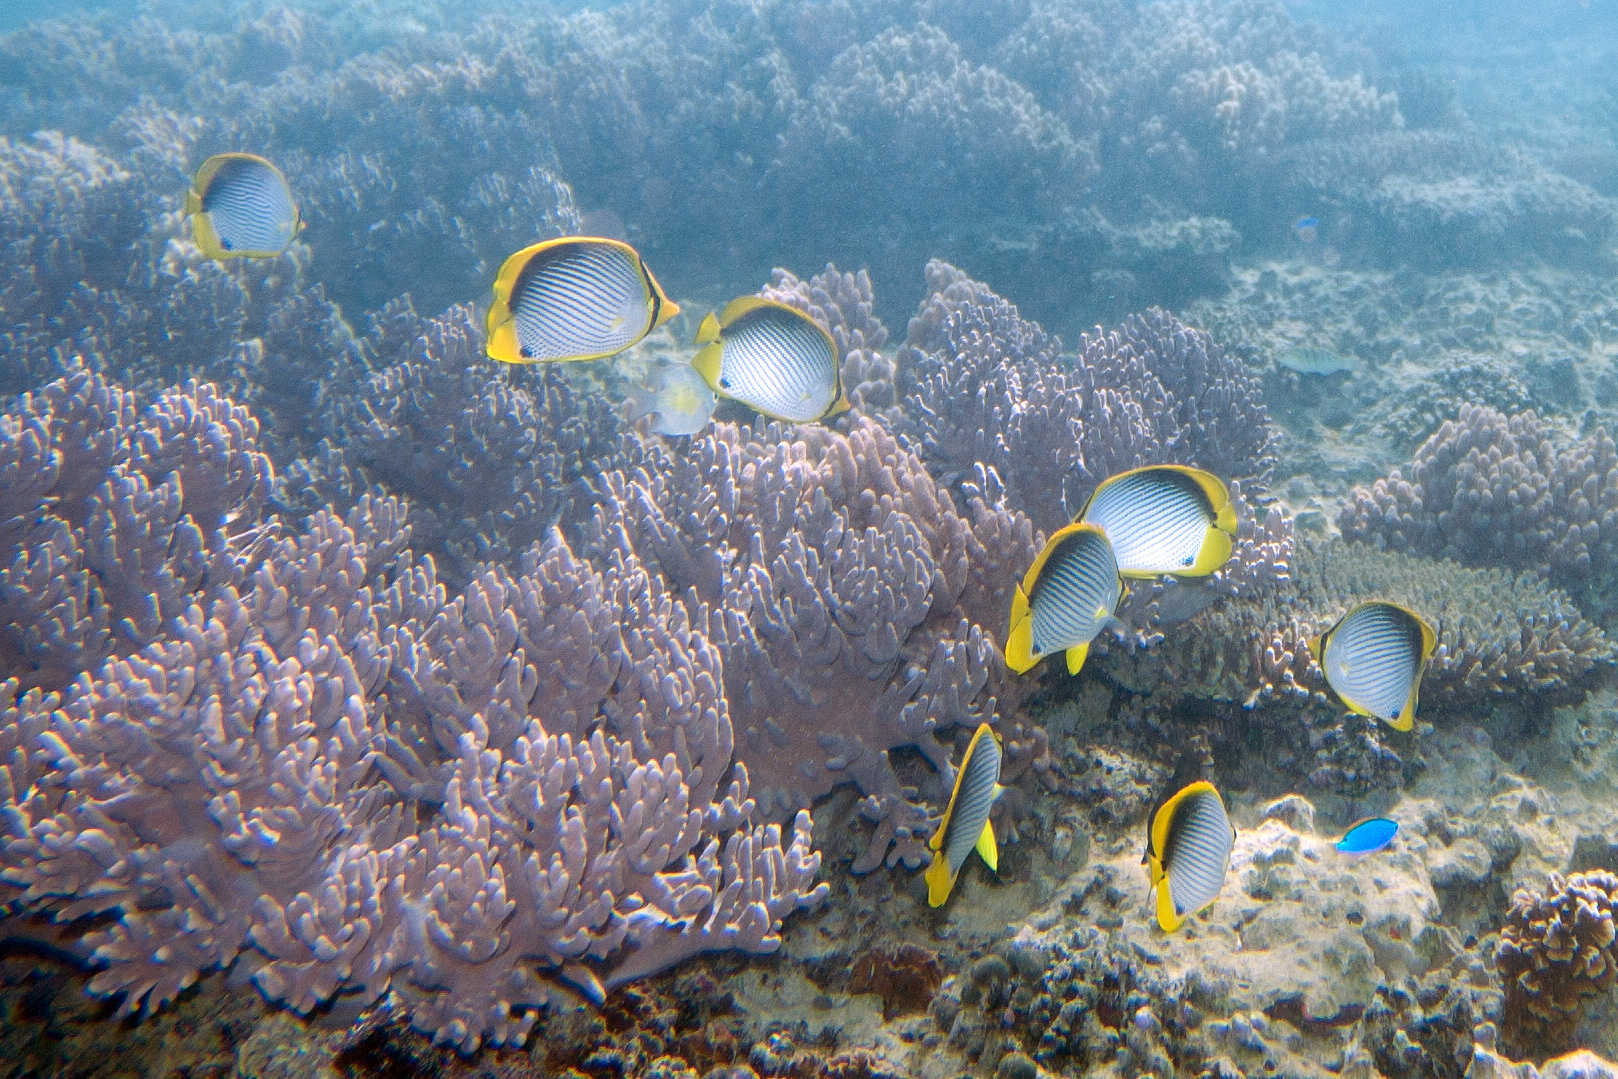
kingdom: Animalia
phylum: Chordata
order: Perciformes
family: Chaetodontidae
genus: Chaetodon
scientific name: Chaetodon melannotus
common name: Blackback butterflyfish
